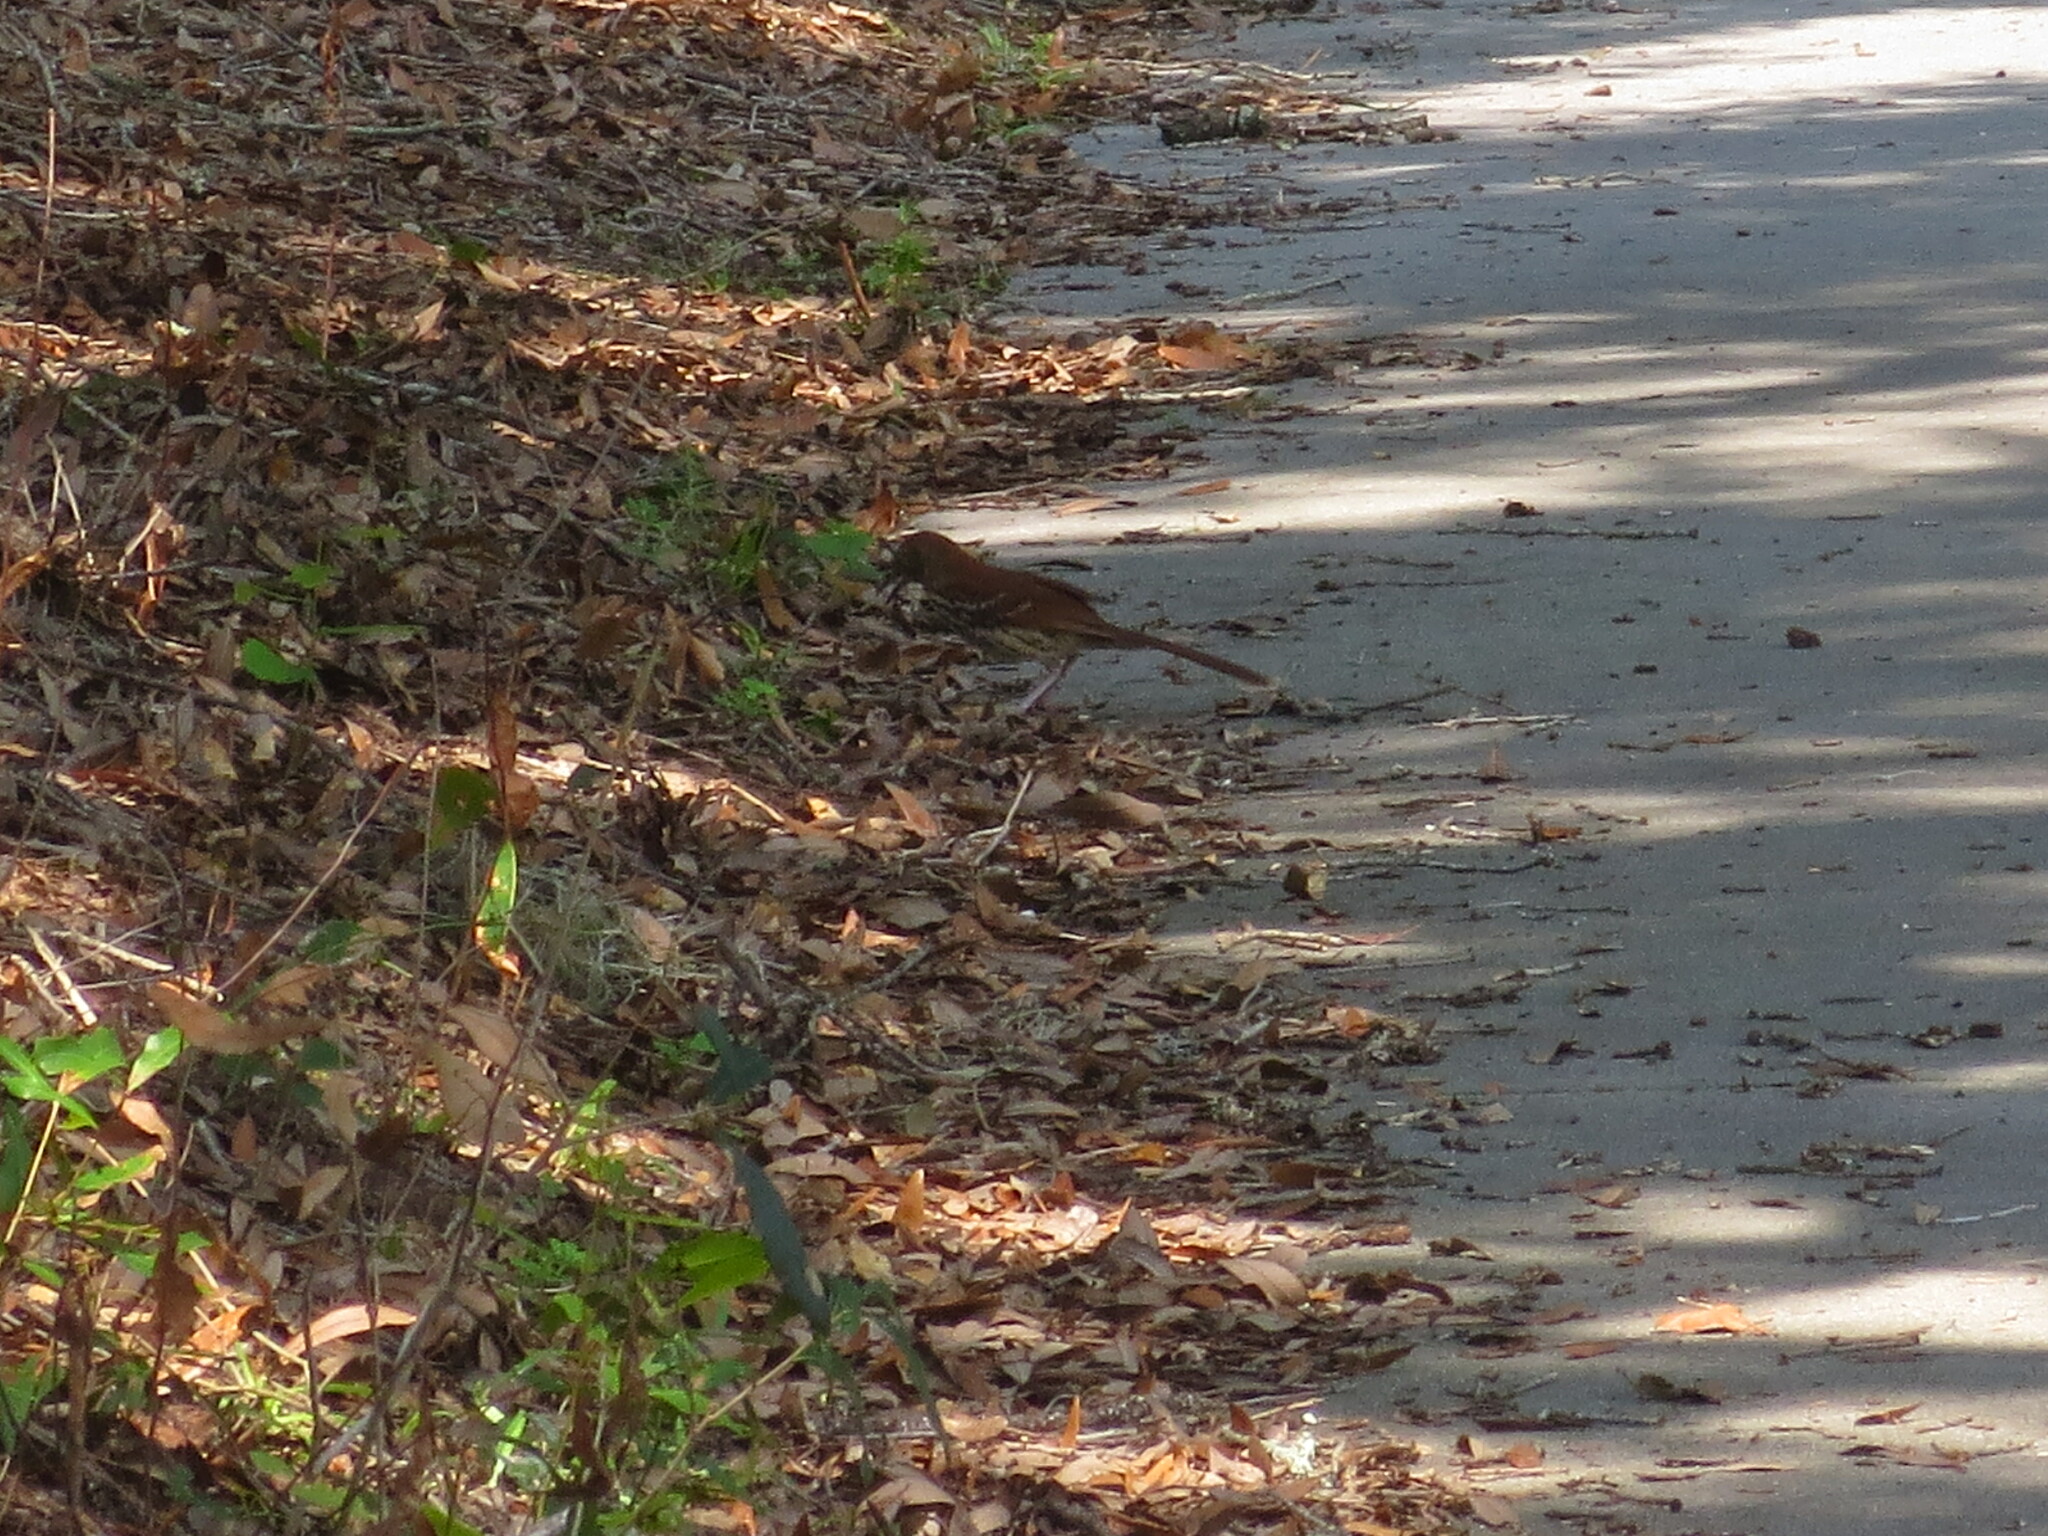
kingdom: Animalia
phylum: Chordata
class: Aves
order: Passeriformes
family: Mimidae
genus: Toxostoma
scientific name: Toxostoma rufum
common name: Brown thrasher
